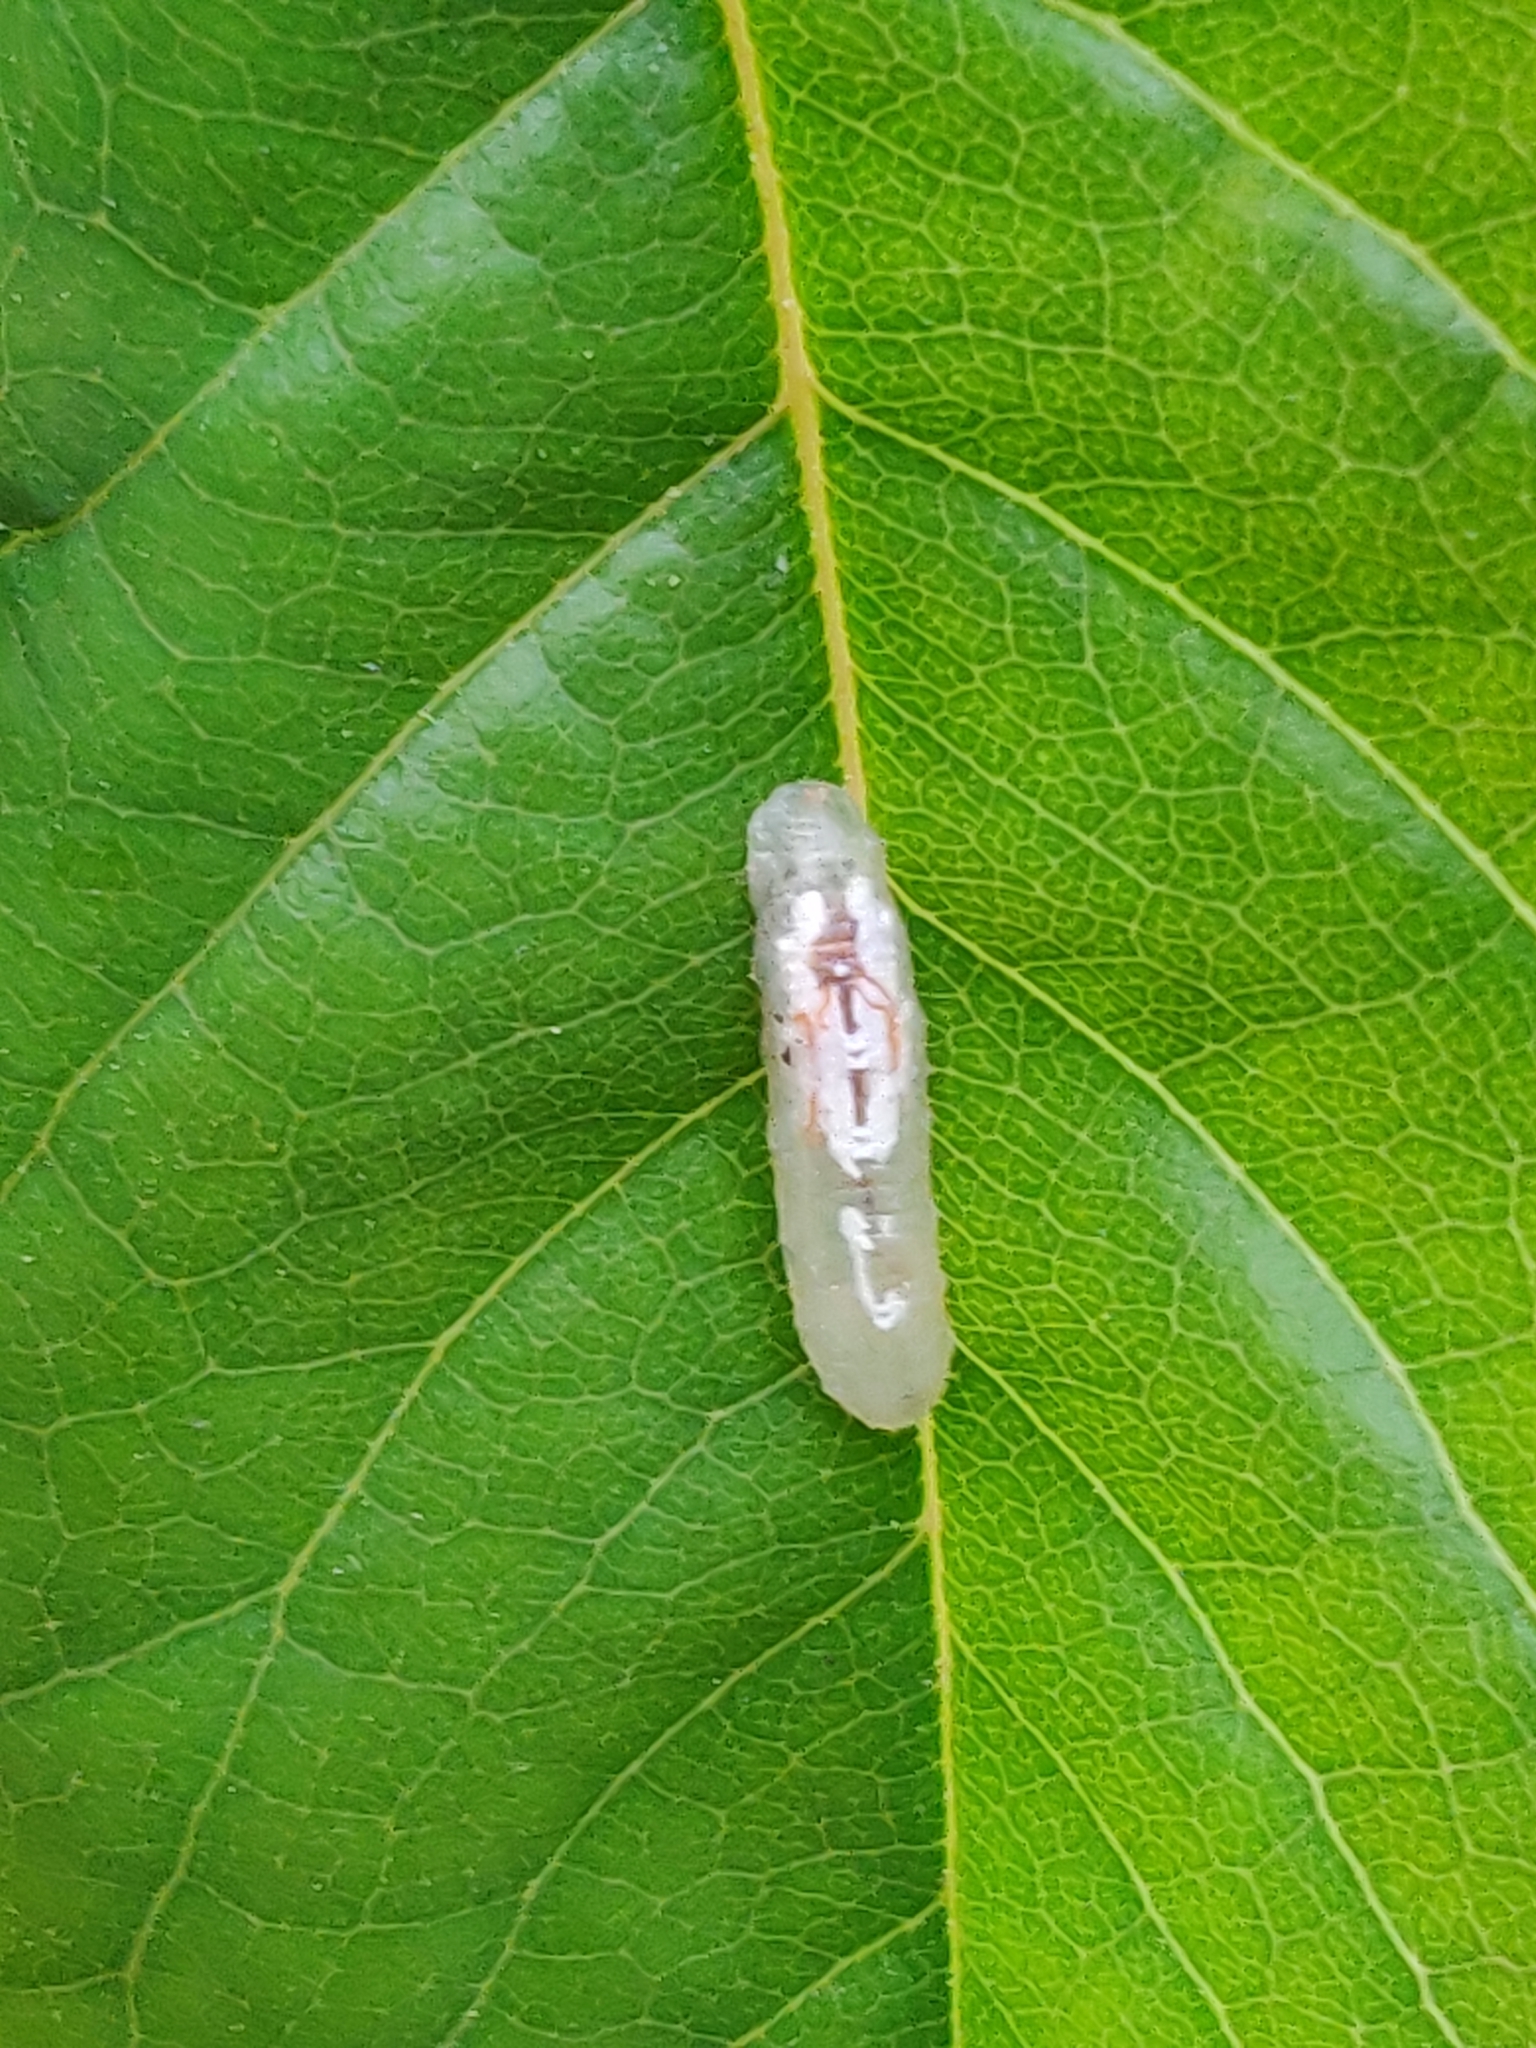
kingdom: Animalia
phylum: Arthropoda
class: Insecta
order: Diptera
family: Syrphidae
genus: Episyrphus
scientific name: Episyrphus balteatus
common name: Marmalade hoverfly
